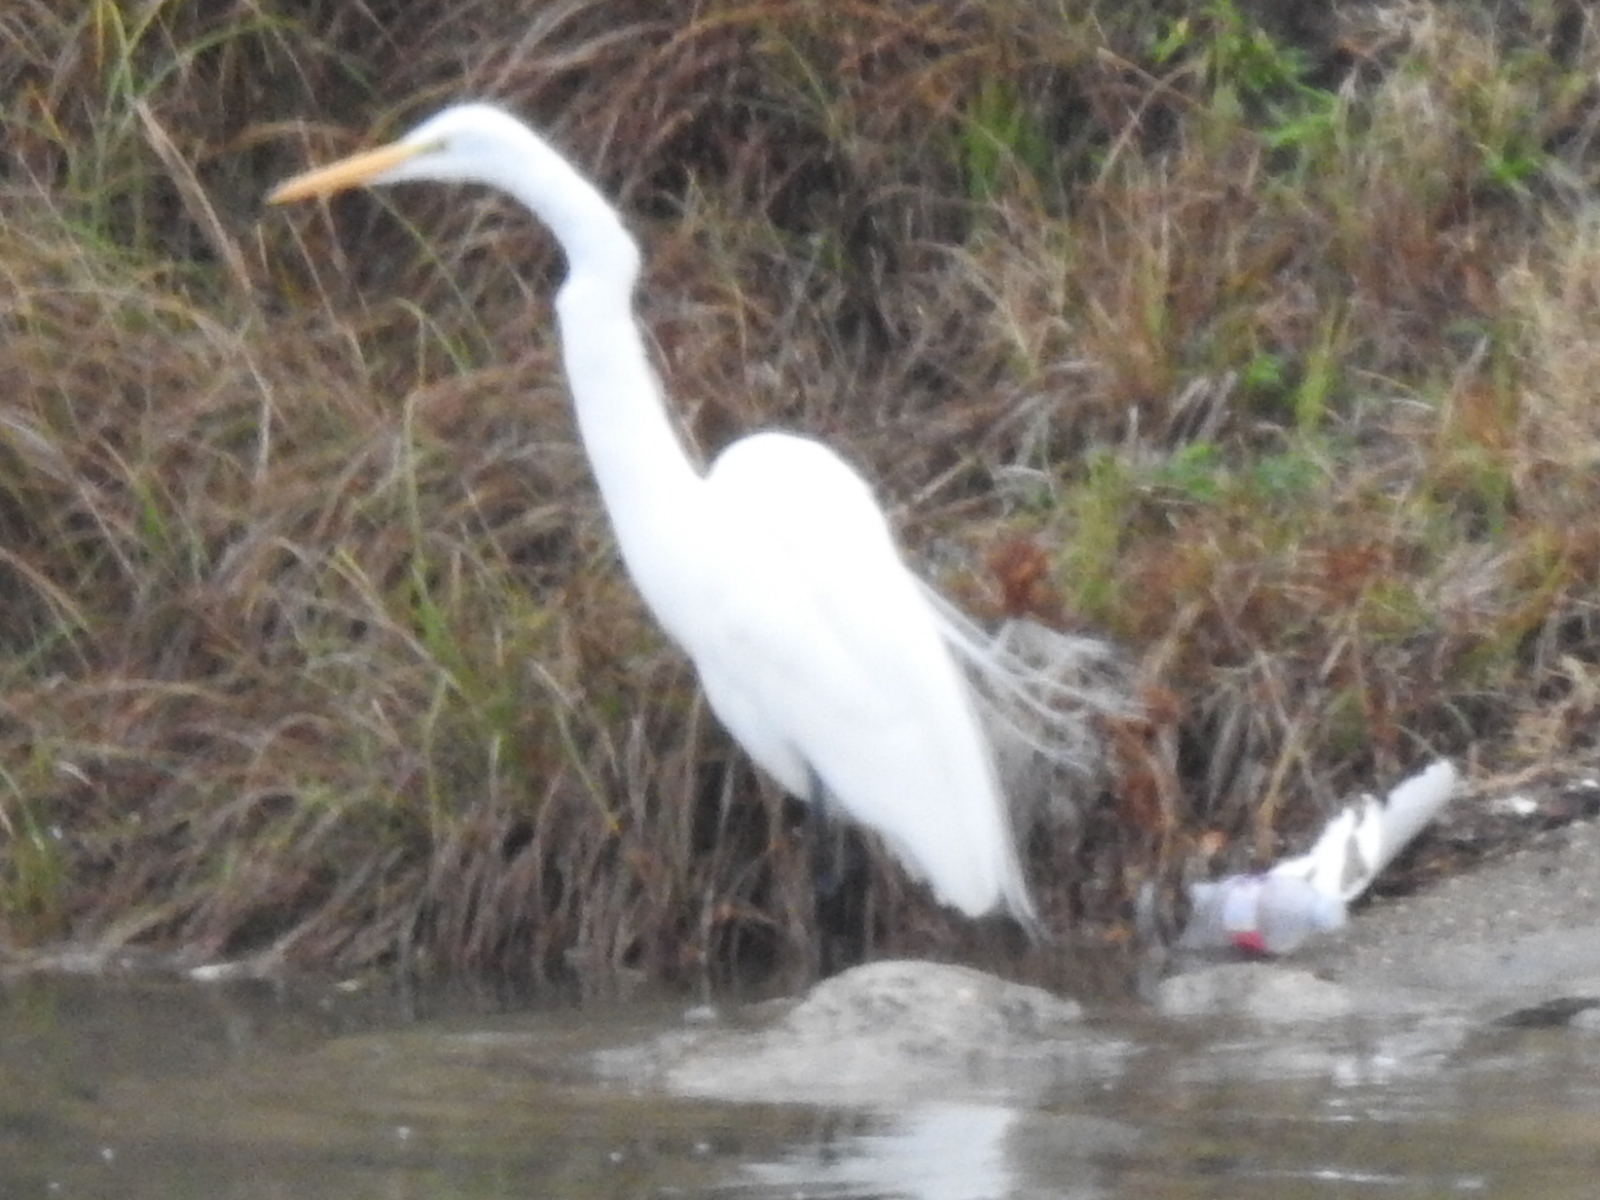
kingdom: Animalia
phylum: Chordata
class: Aves
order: Pelecaniformes
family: Ardeidae
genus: Ardea
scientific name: Ardea alba
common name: Great egret
